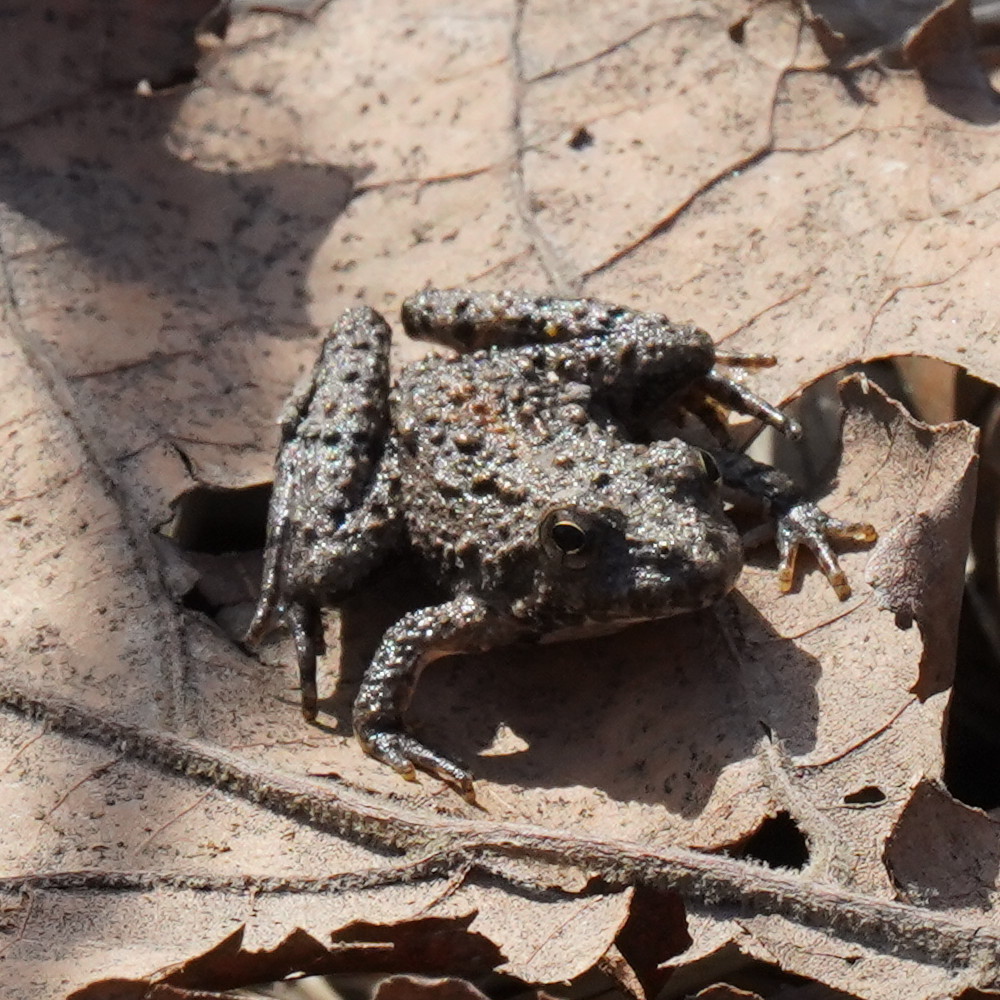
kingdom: Animalia
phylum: Chordata
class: Amphibia
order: Anura
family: Hylidae
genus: Acris
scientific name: Acris blanchardi
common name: Blanchard's cricket frog
